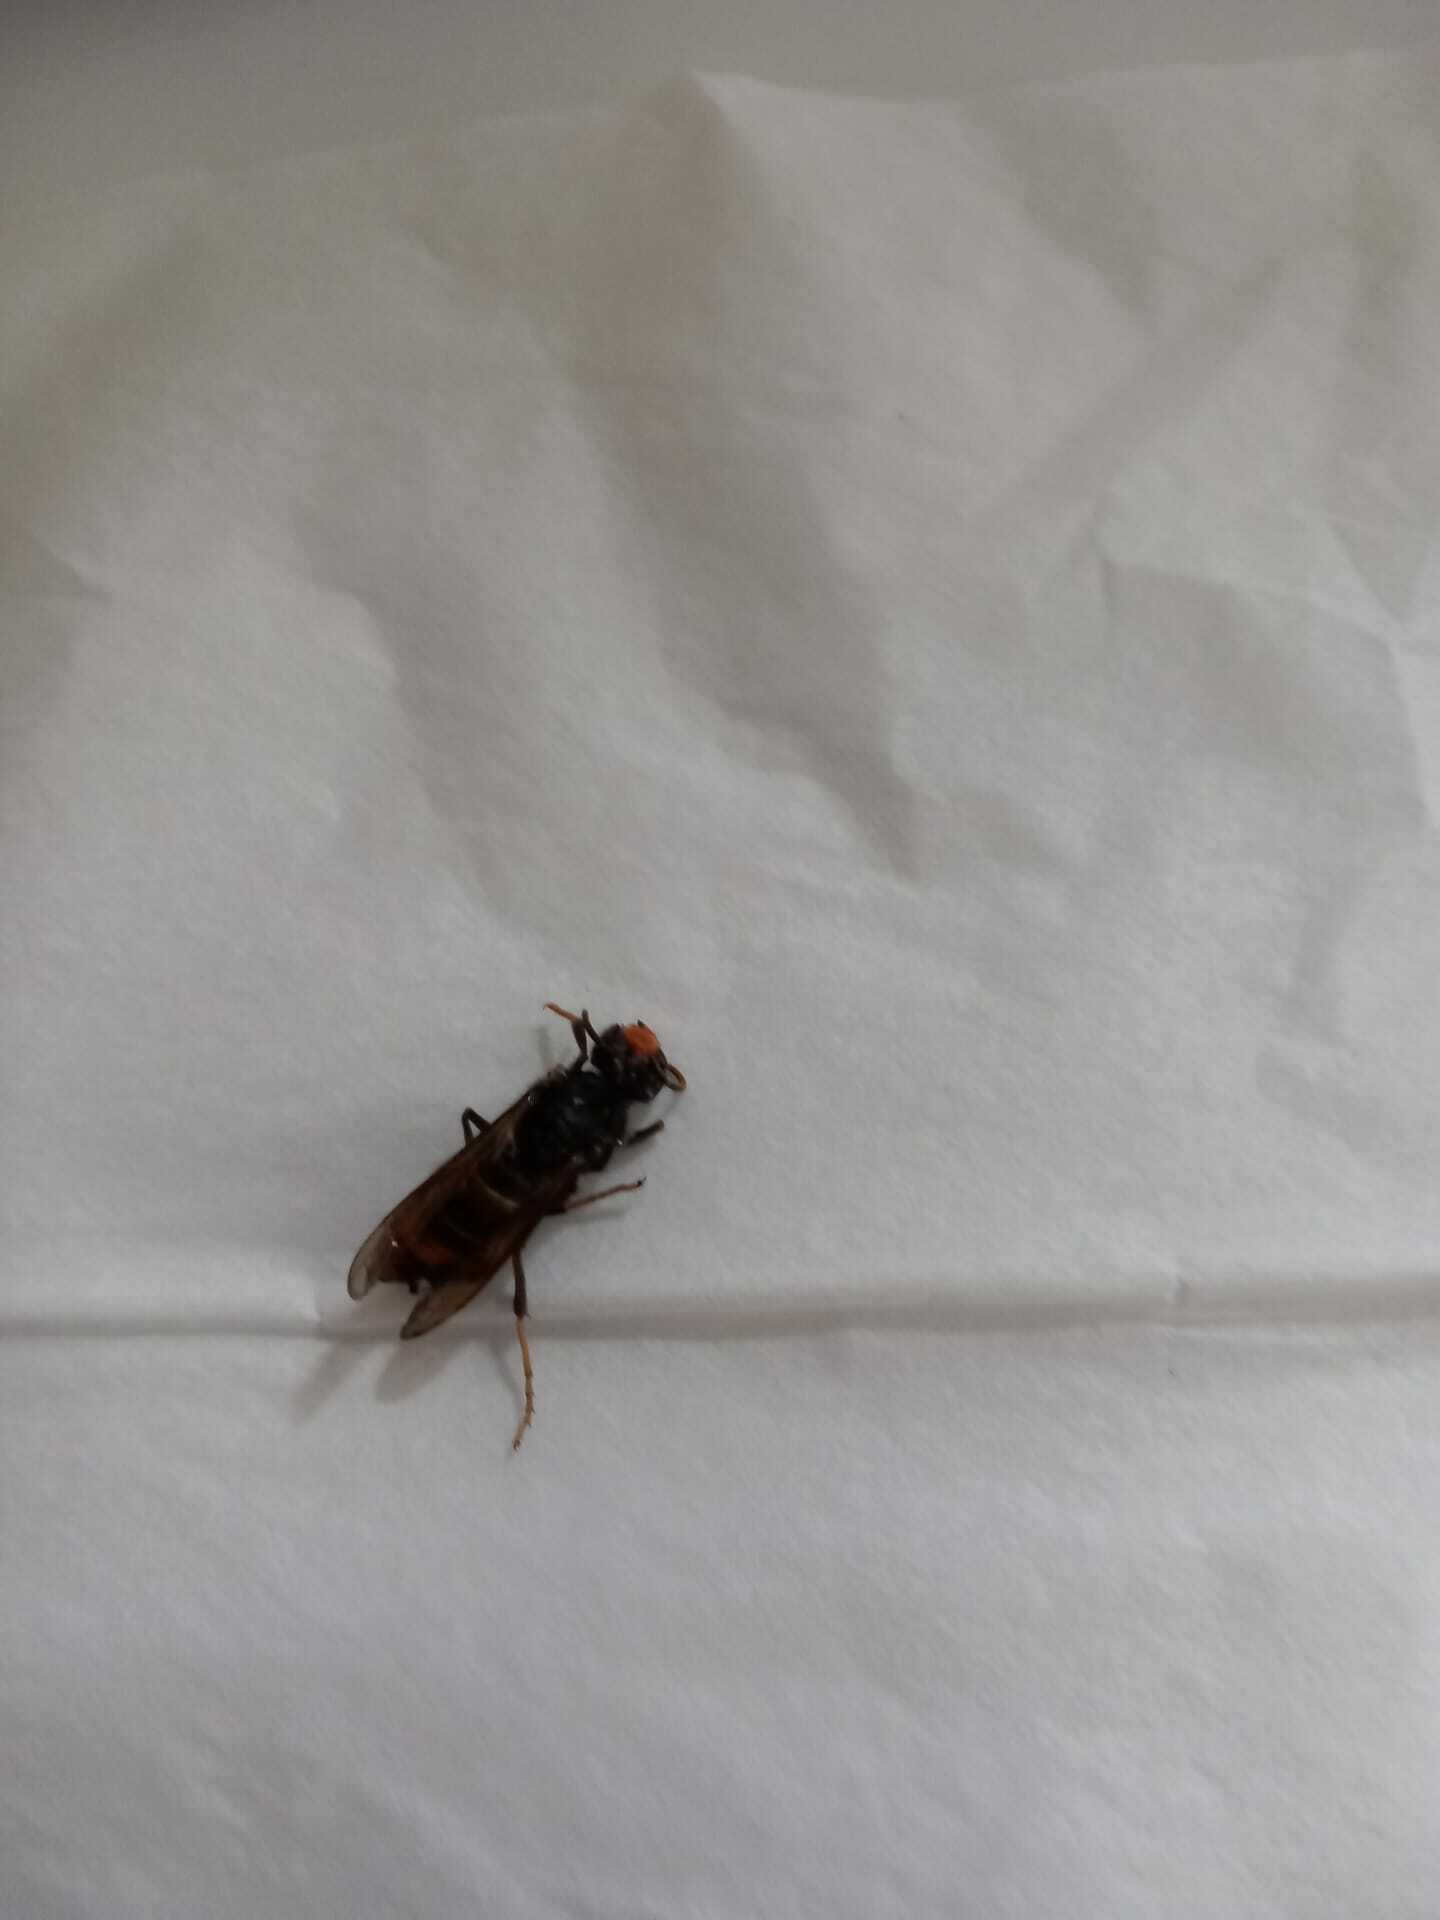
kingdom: Animalia
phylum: Arthropoda
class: Insecta
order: Hymenoptera
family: Vespidae
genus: Vespa
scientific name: Vespa velutina
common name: Asian hornet
